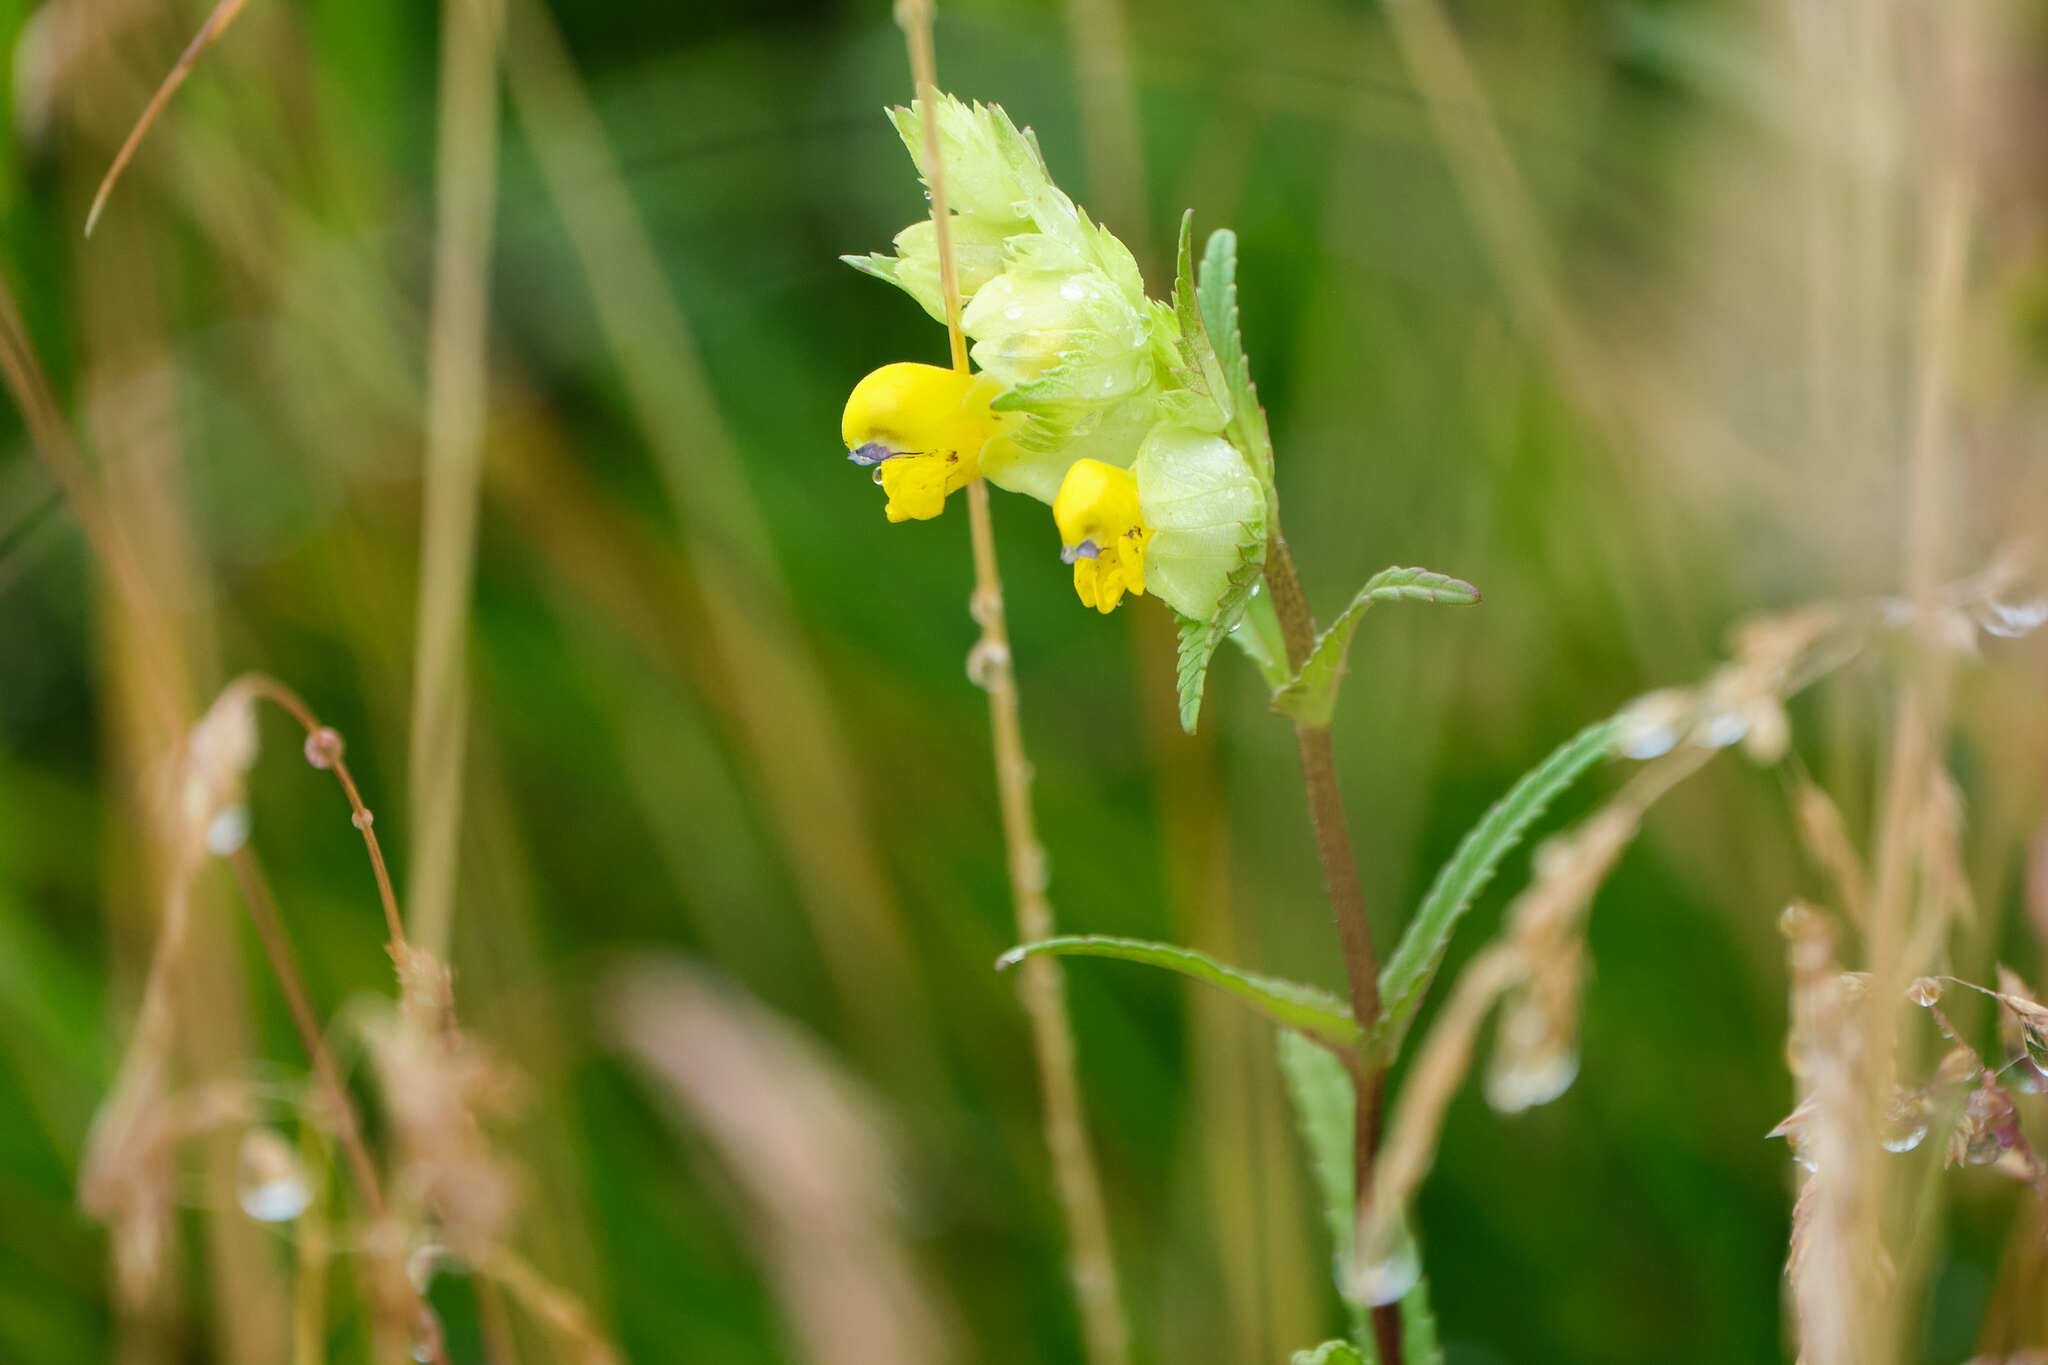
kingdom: Plantae
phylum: Tracheophyta
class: Magnoliopsida
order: Lamiales
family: Orobanchaceae
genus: Rhinanthus
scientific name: Rhinanthus minor
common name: Yellow-rattle
